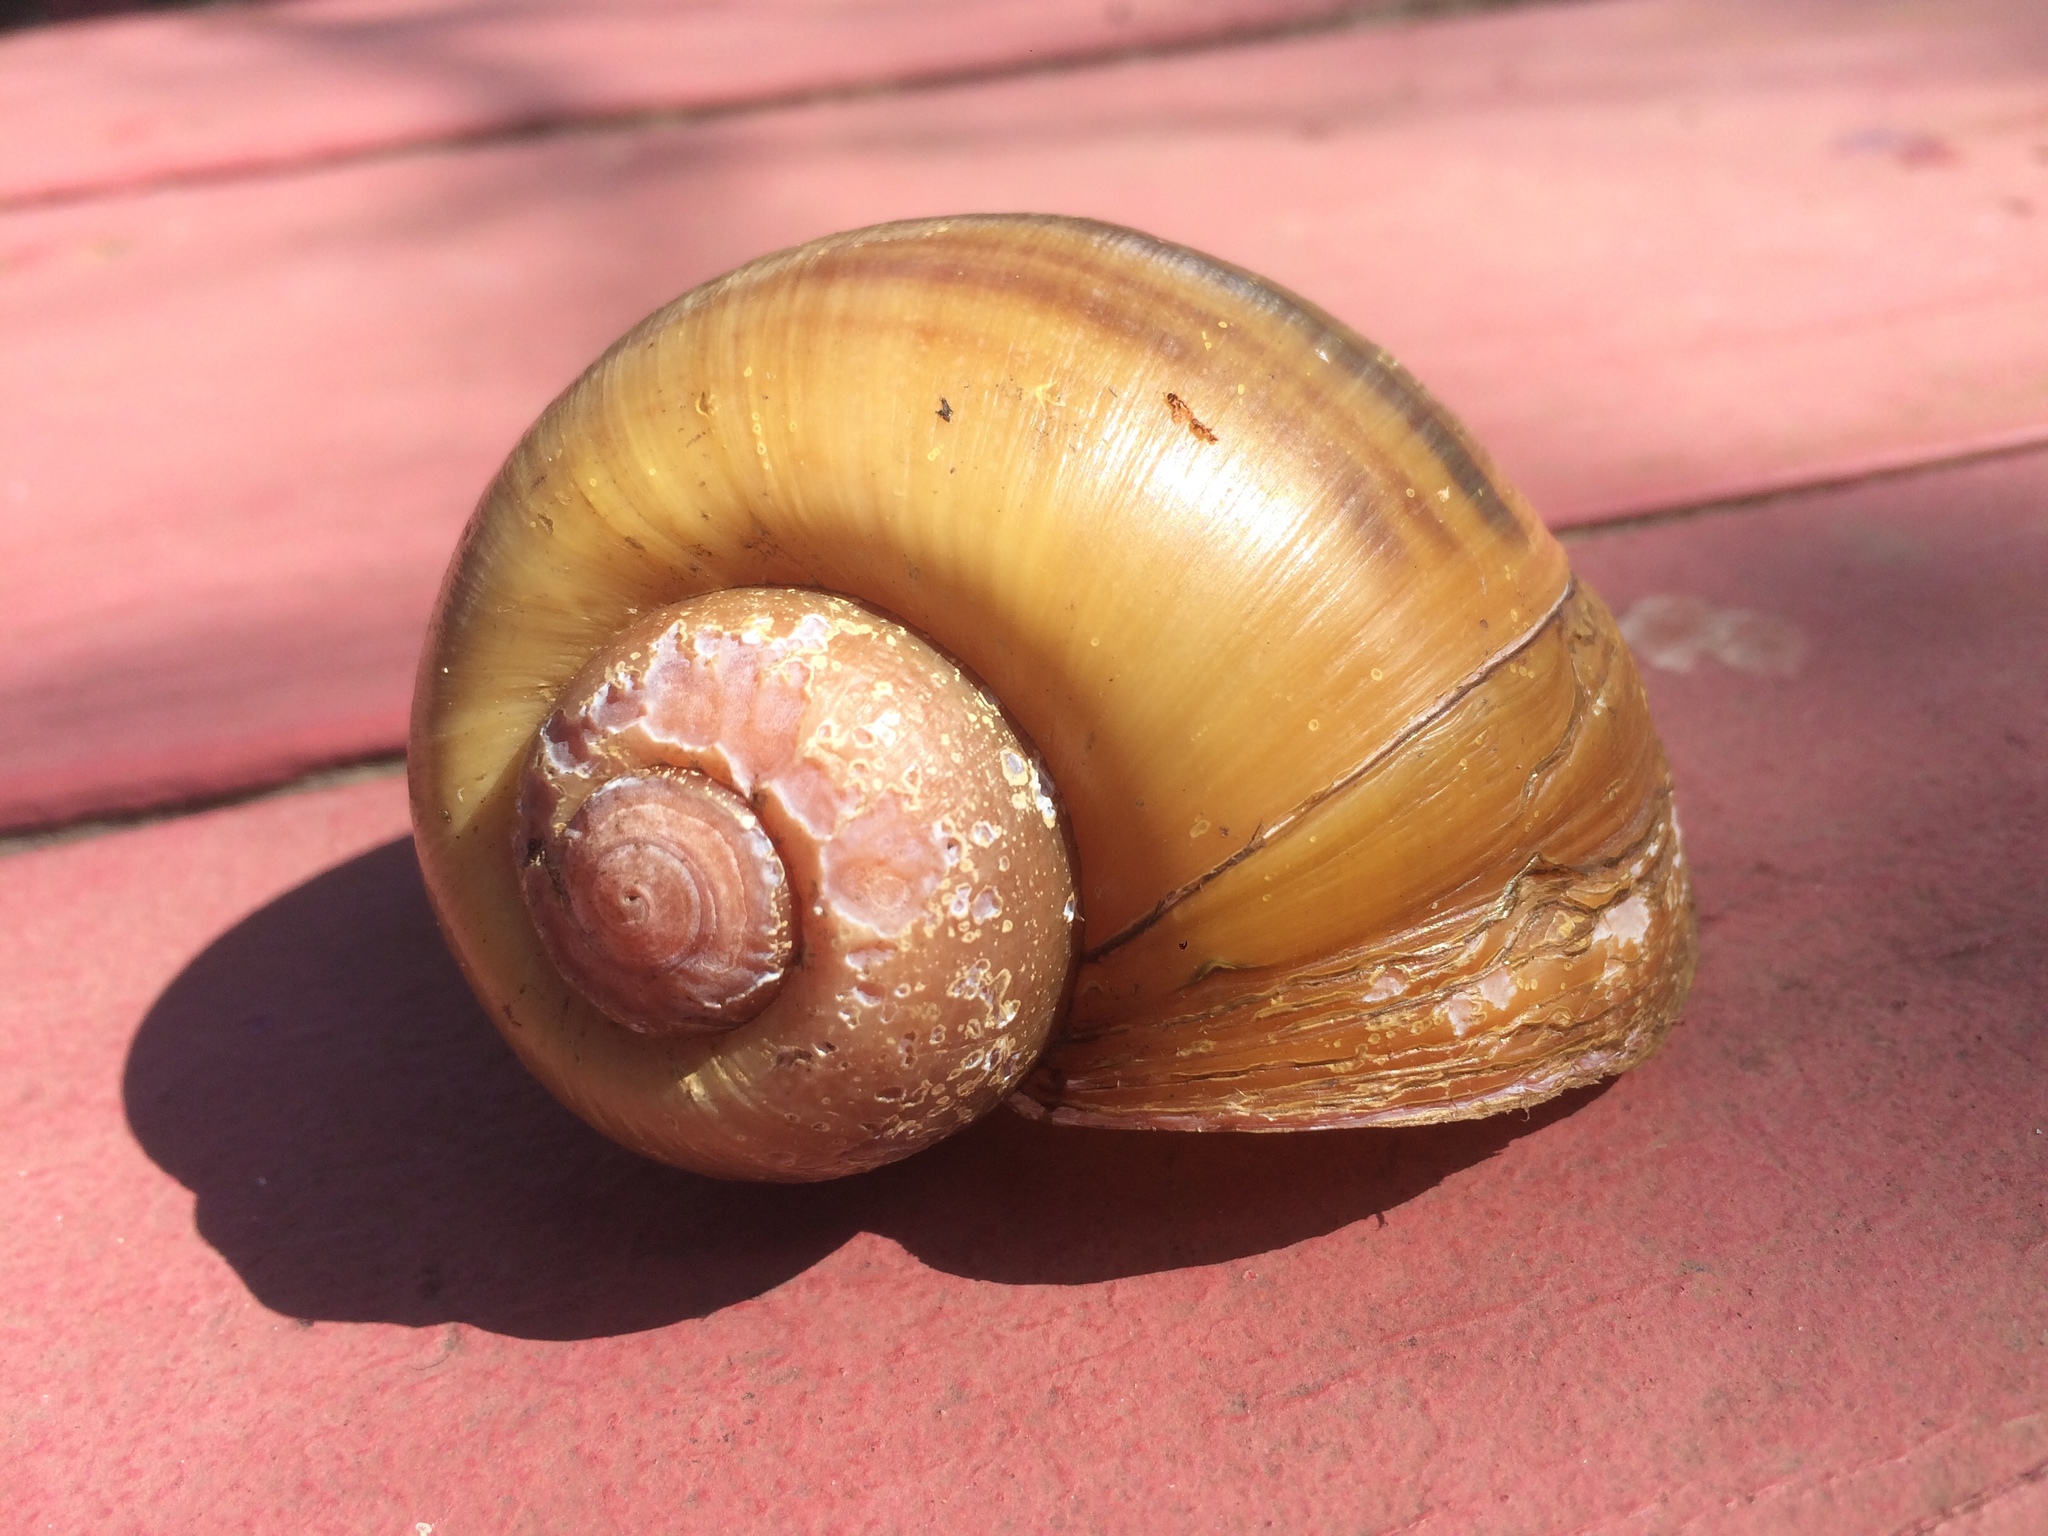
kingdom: Animalia
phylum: Mollusca
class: Gastropoda
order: Architaenioglossa
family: Ampullariidae
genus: Pomacea
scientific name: Pomacea maculata
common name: Giant applesnail
